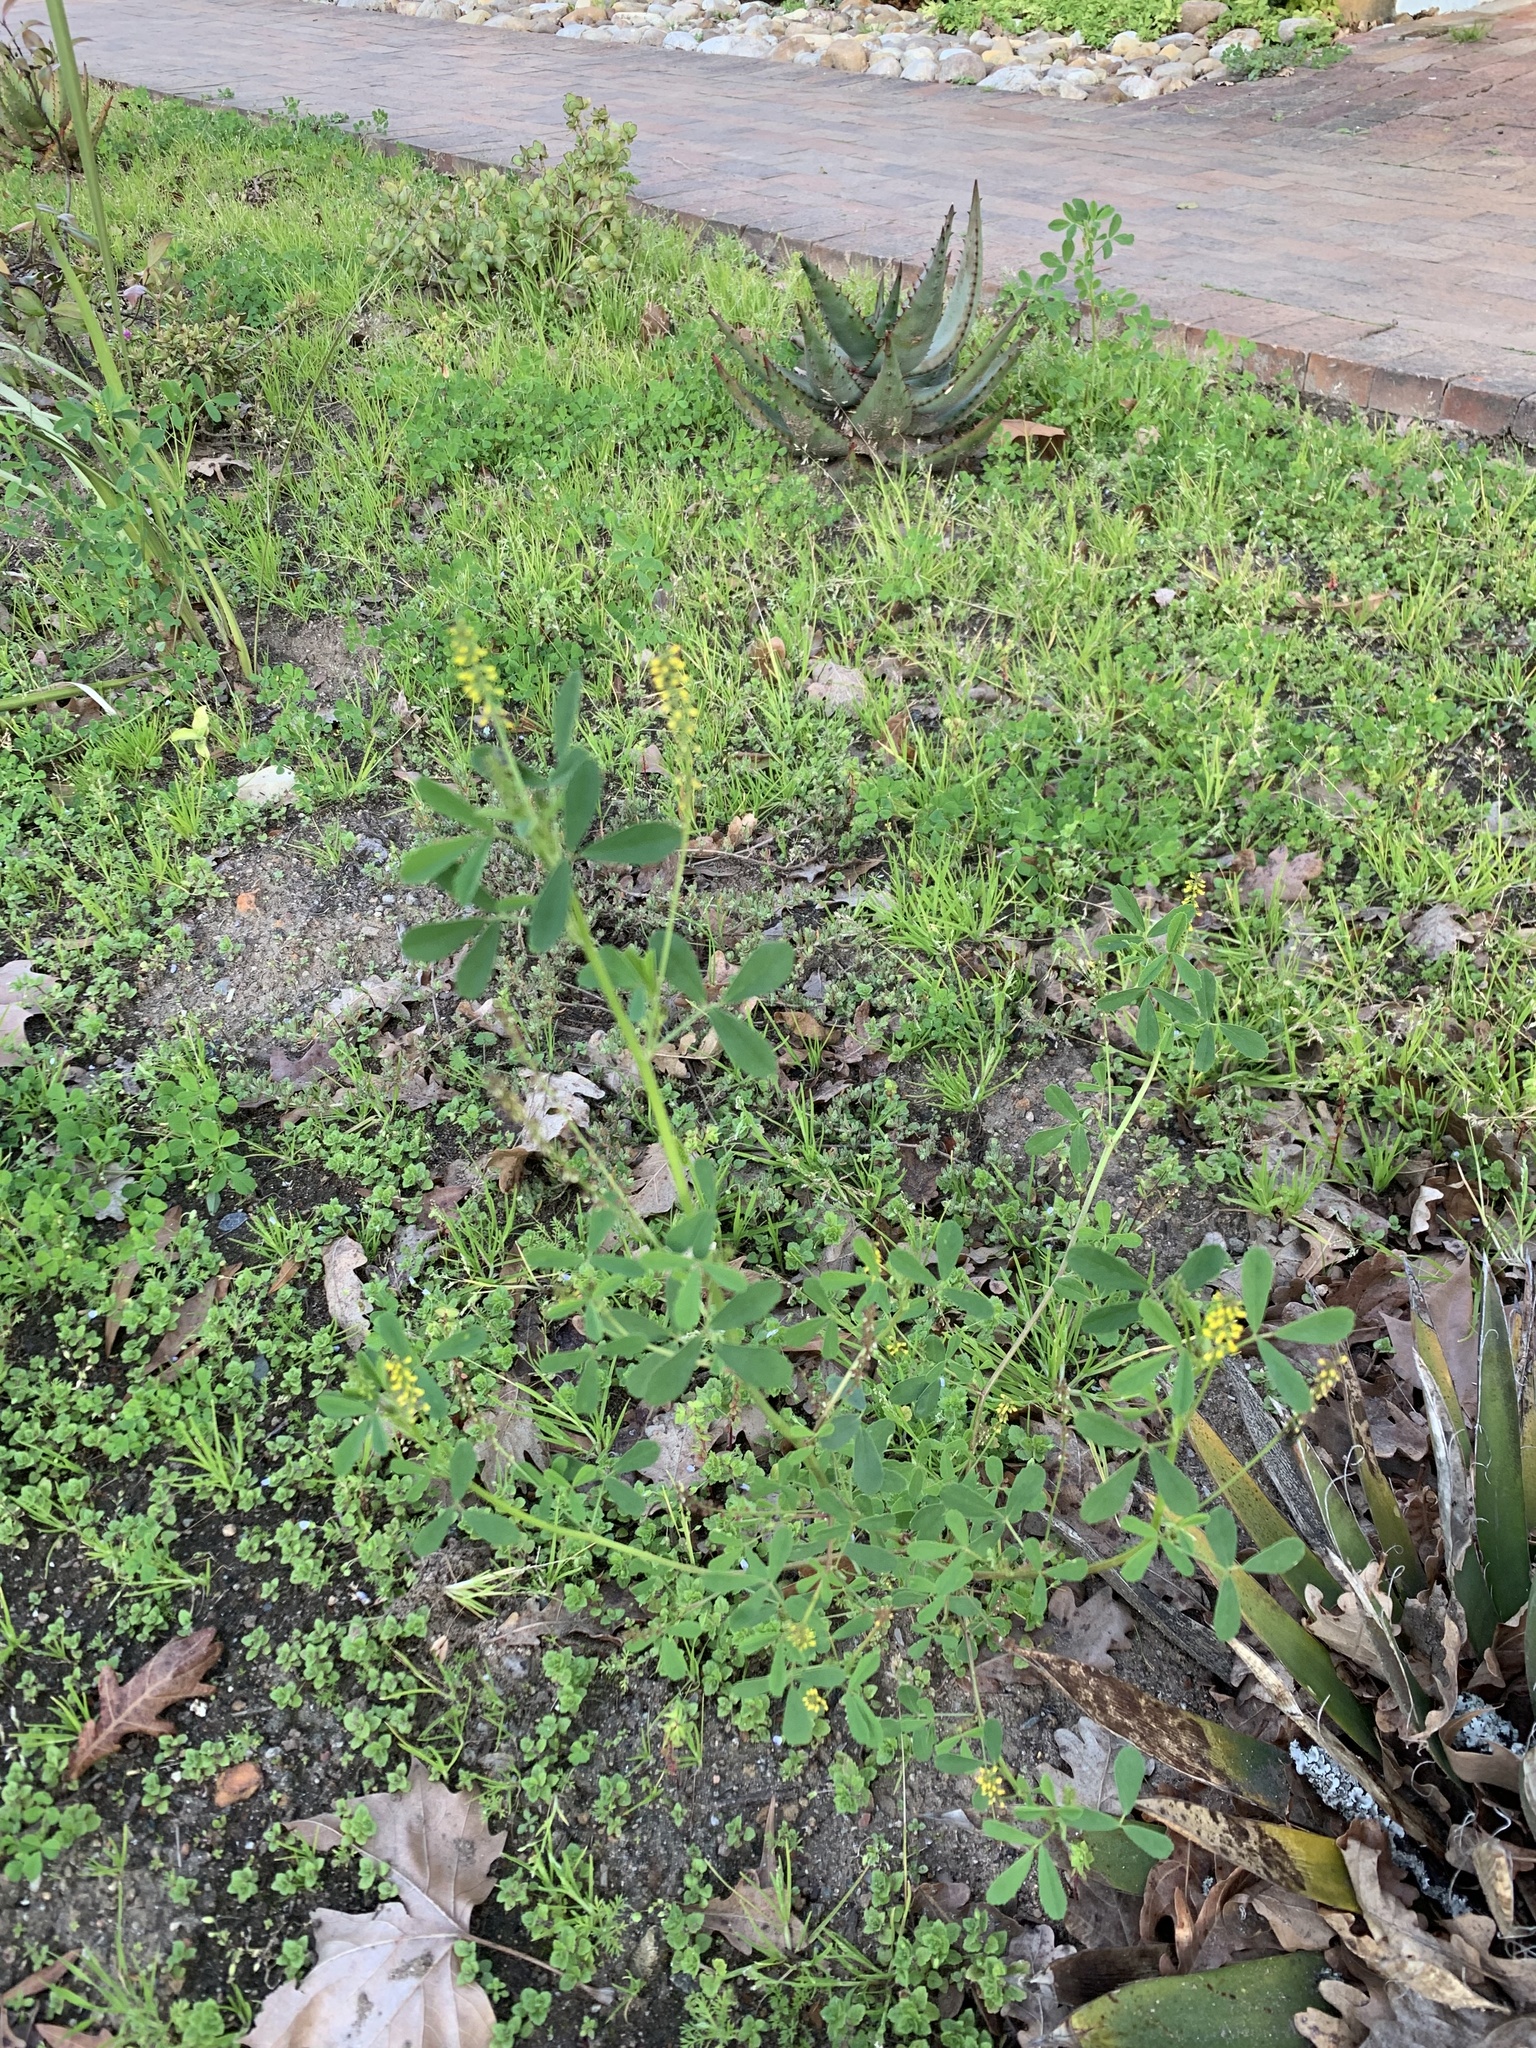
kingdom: Plantae
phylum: Tracheophyta
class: Magnoliopsida
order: Fabales
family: Fabaceae
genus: Melilotus
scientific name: Melilotus indicus
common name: Small melilot
